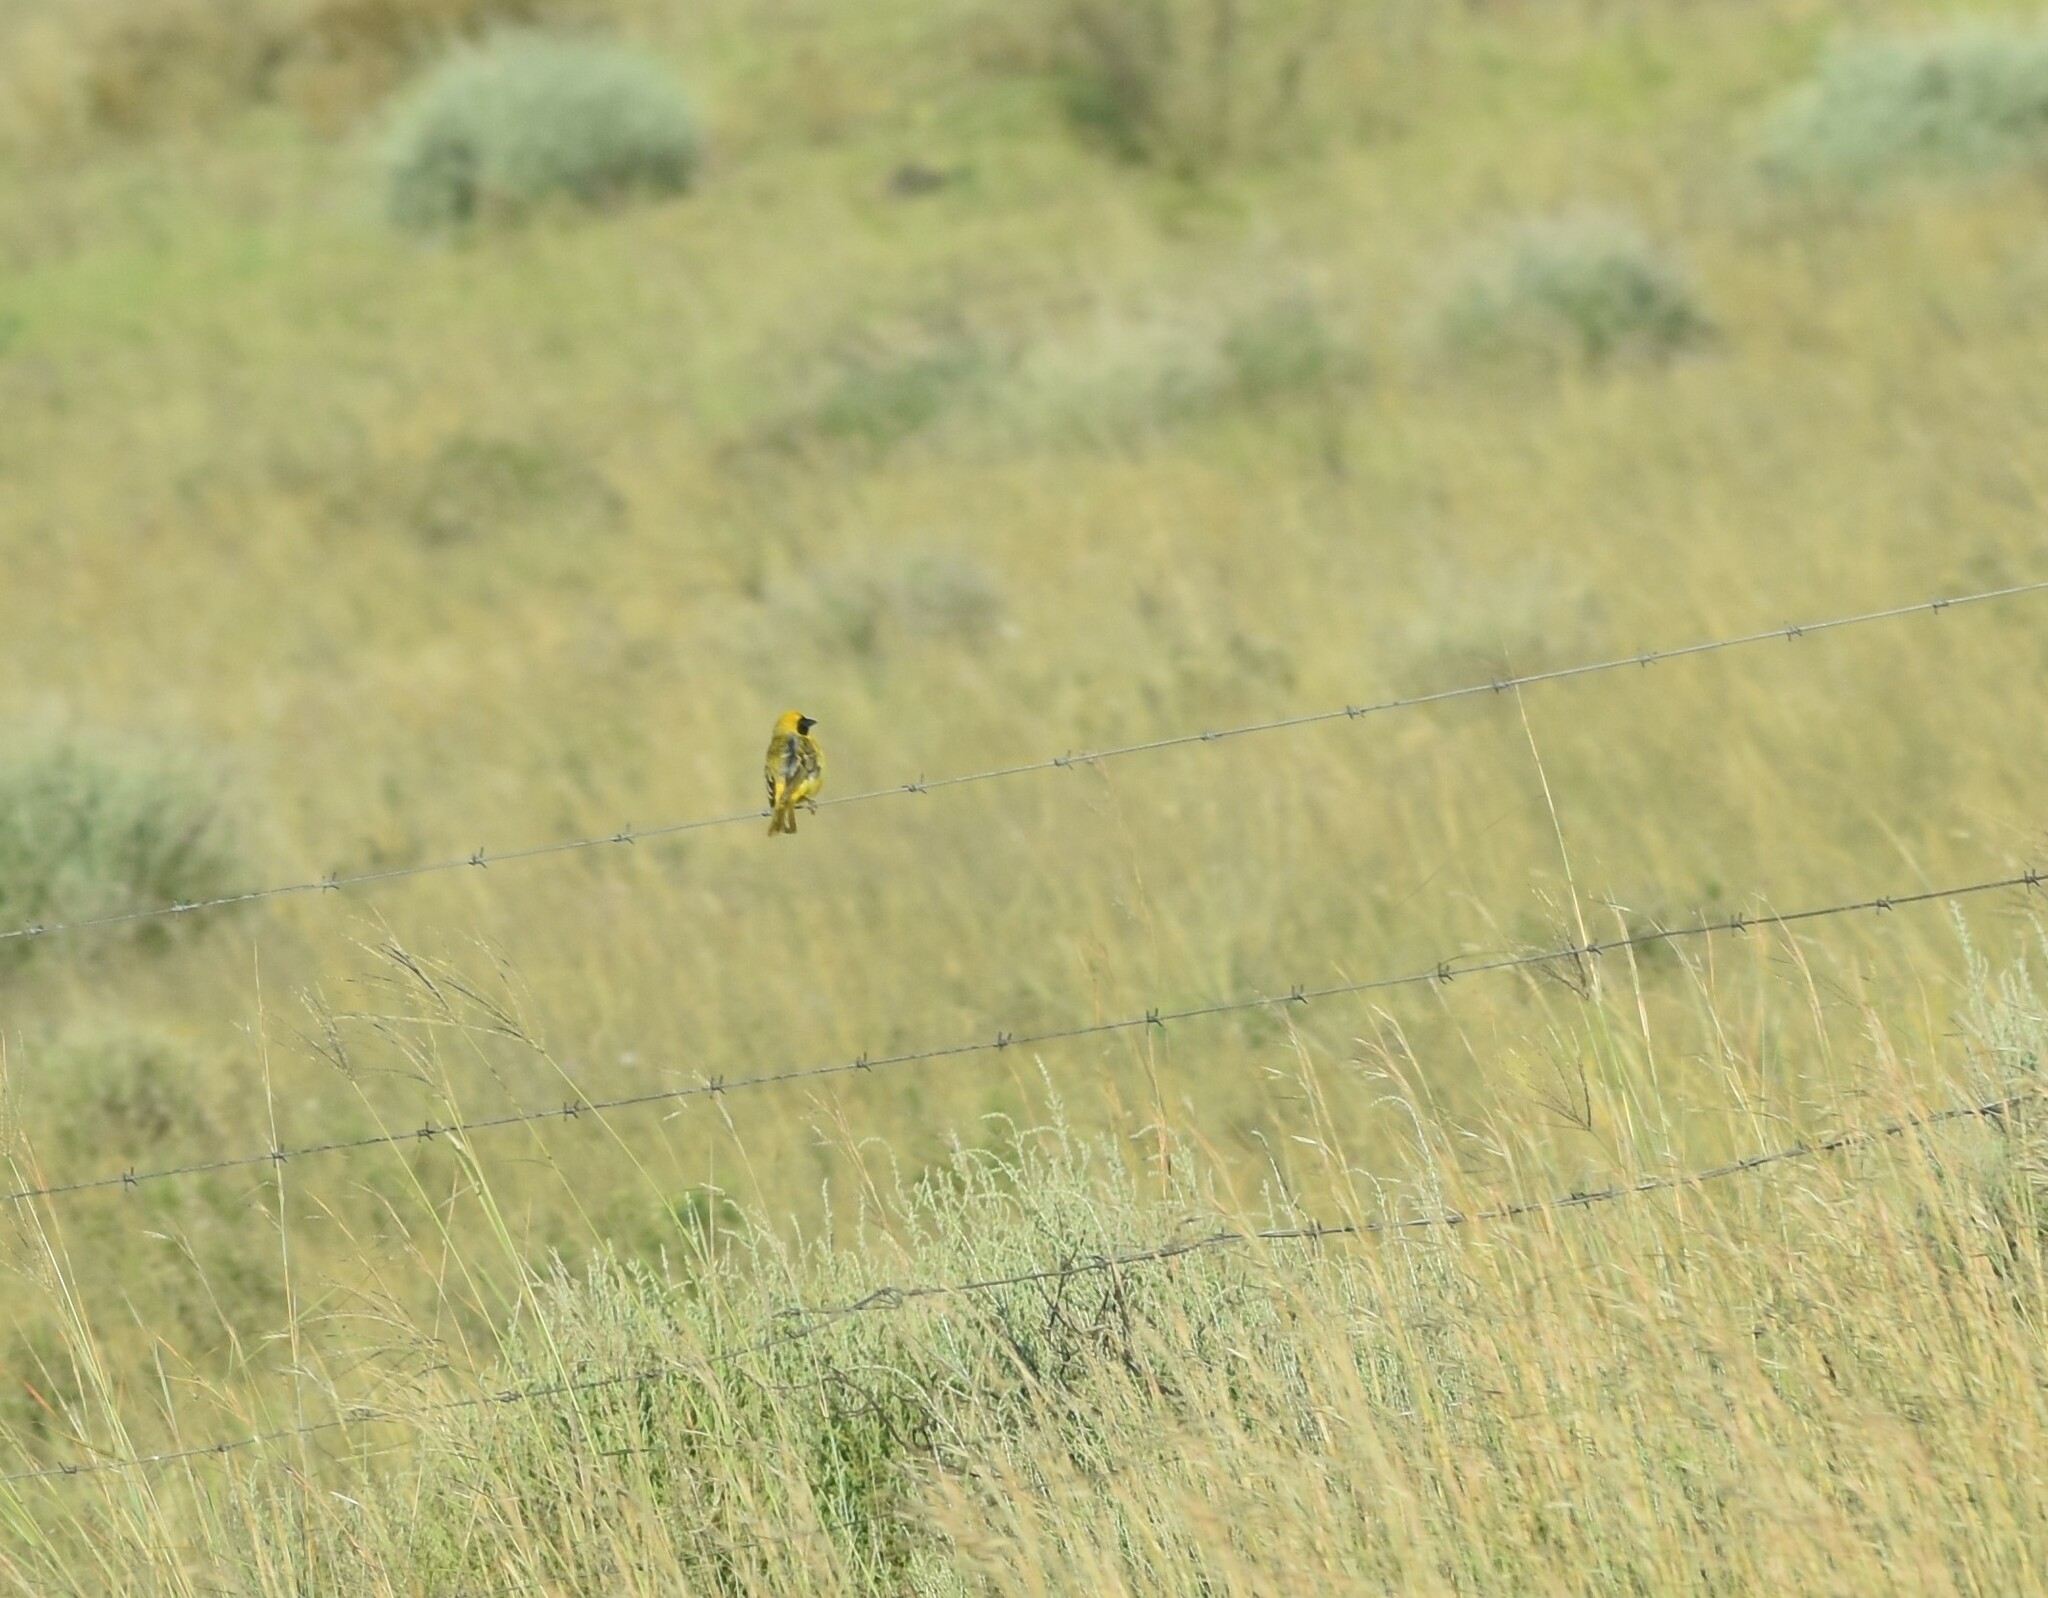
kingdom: Animalia
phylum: Chordata
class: Aves
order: Passeriformes
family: Ploceidae
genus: Ploceus
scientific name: Ploceus velatus
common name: Southern masked weaver
